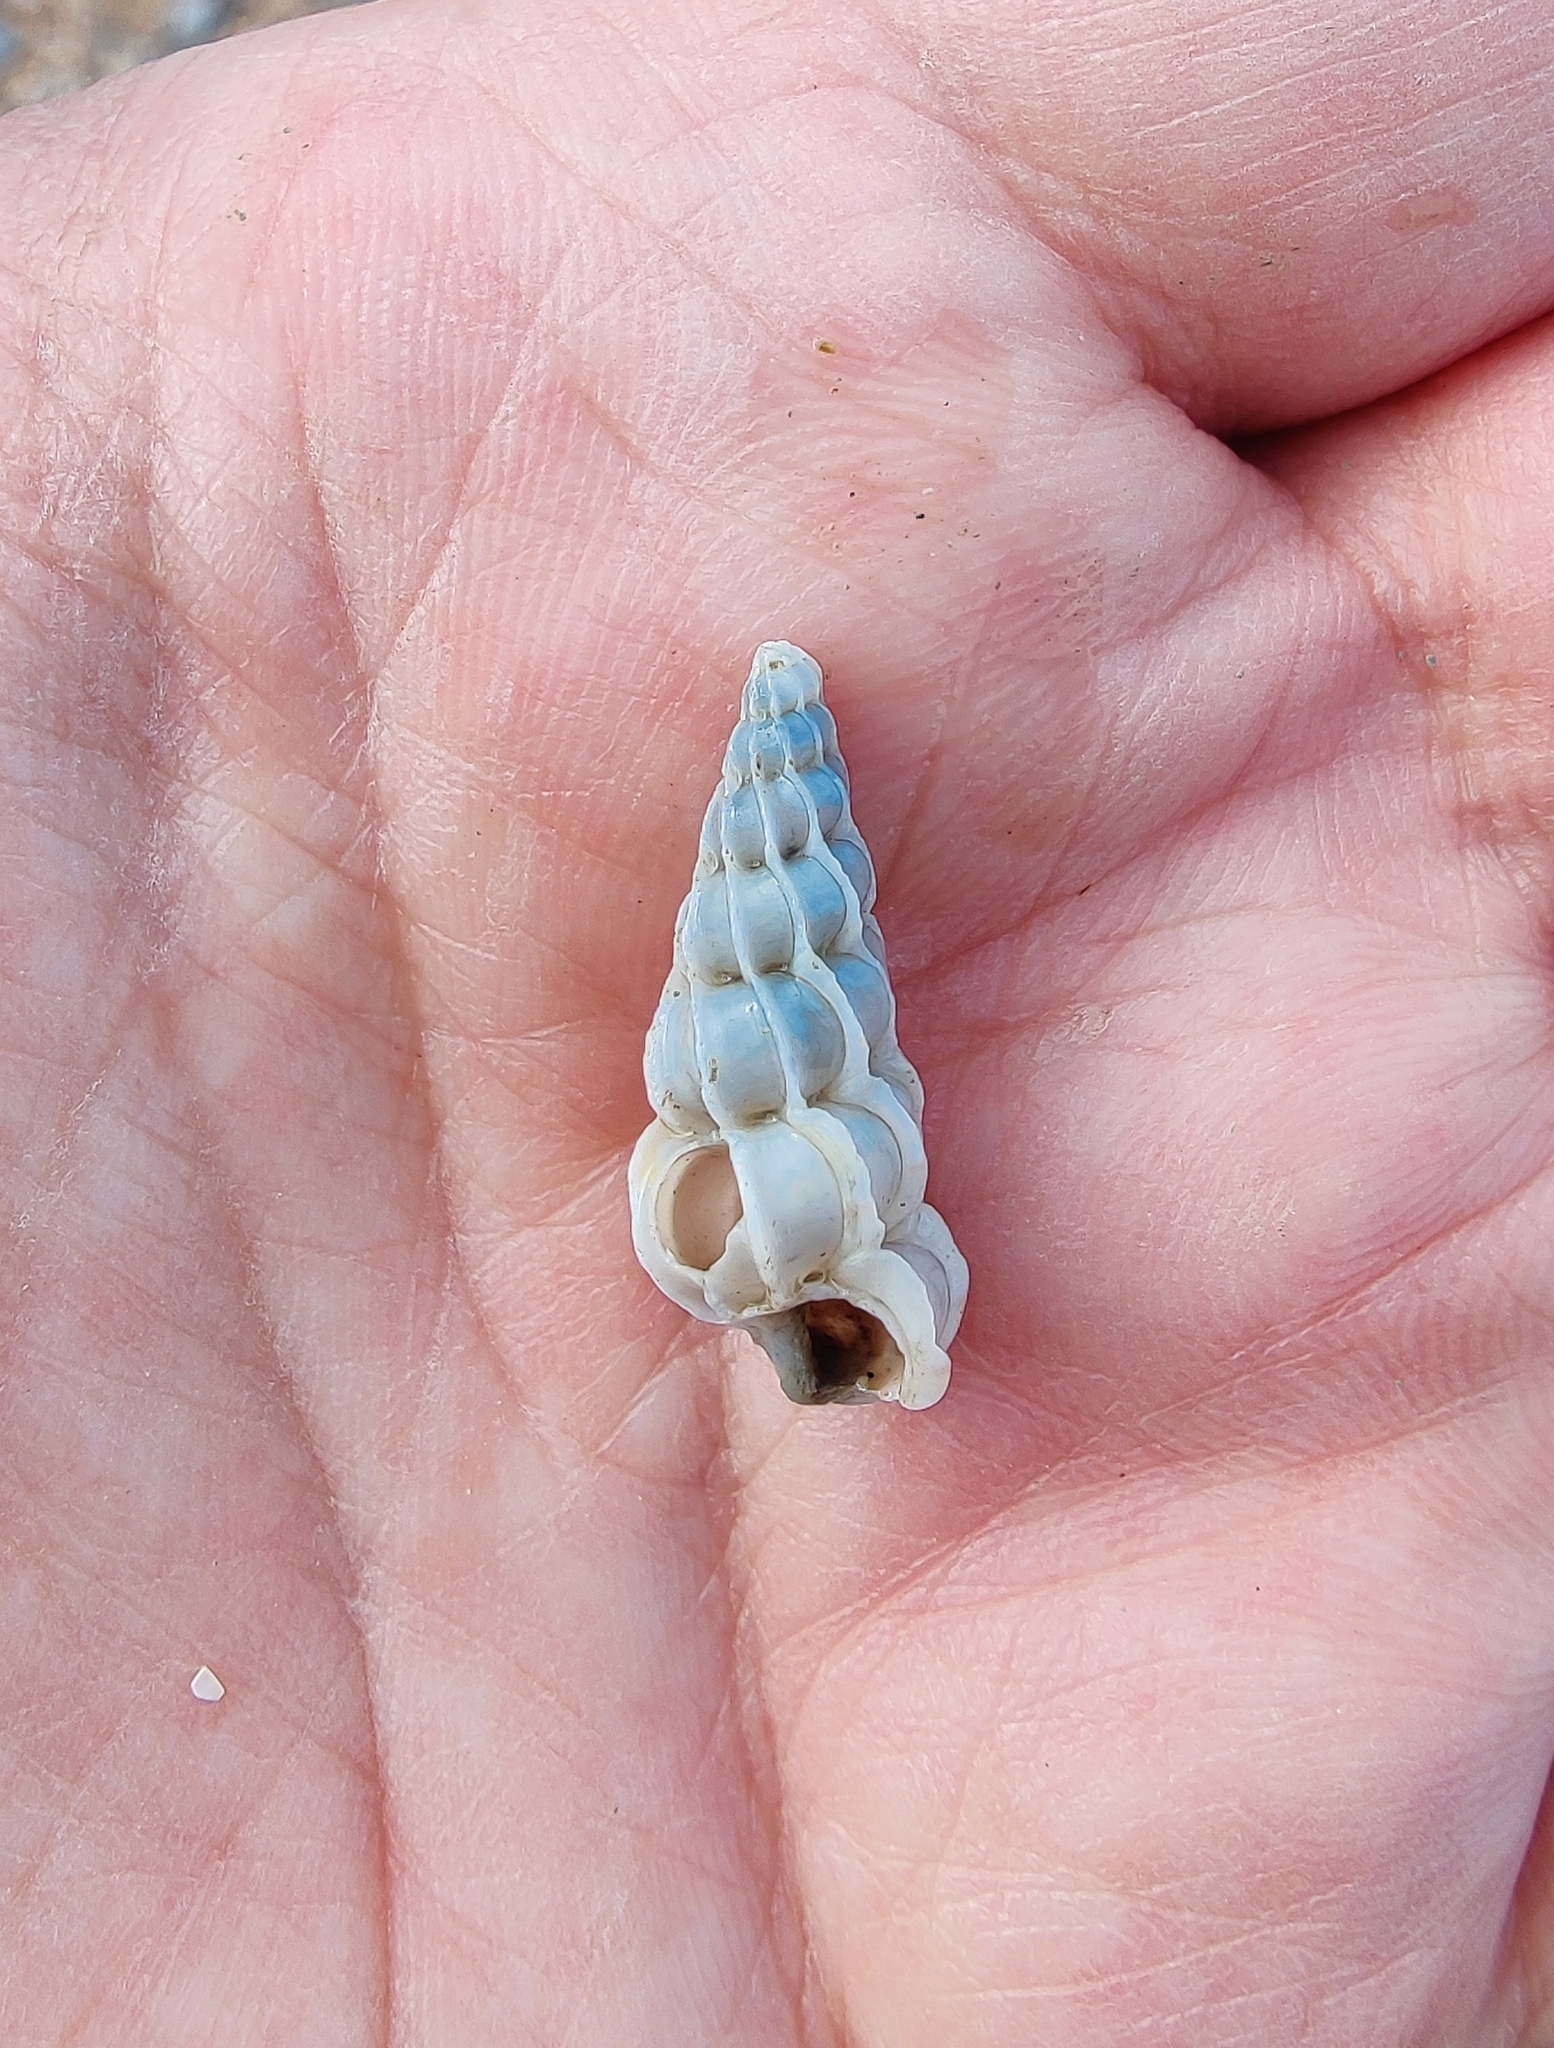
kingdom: Animalia
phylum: Mollusca
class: Gastropoda
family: Epitoniidae
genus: Epitonium
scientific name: Epitonium clathrus
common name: Common wentletrap
